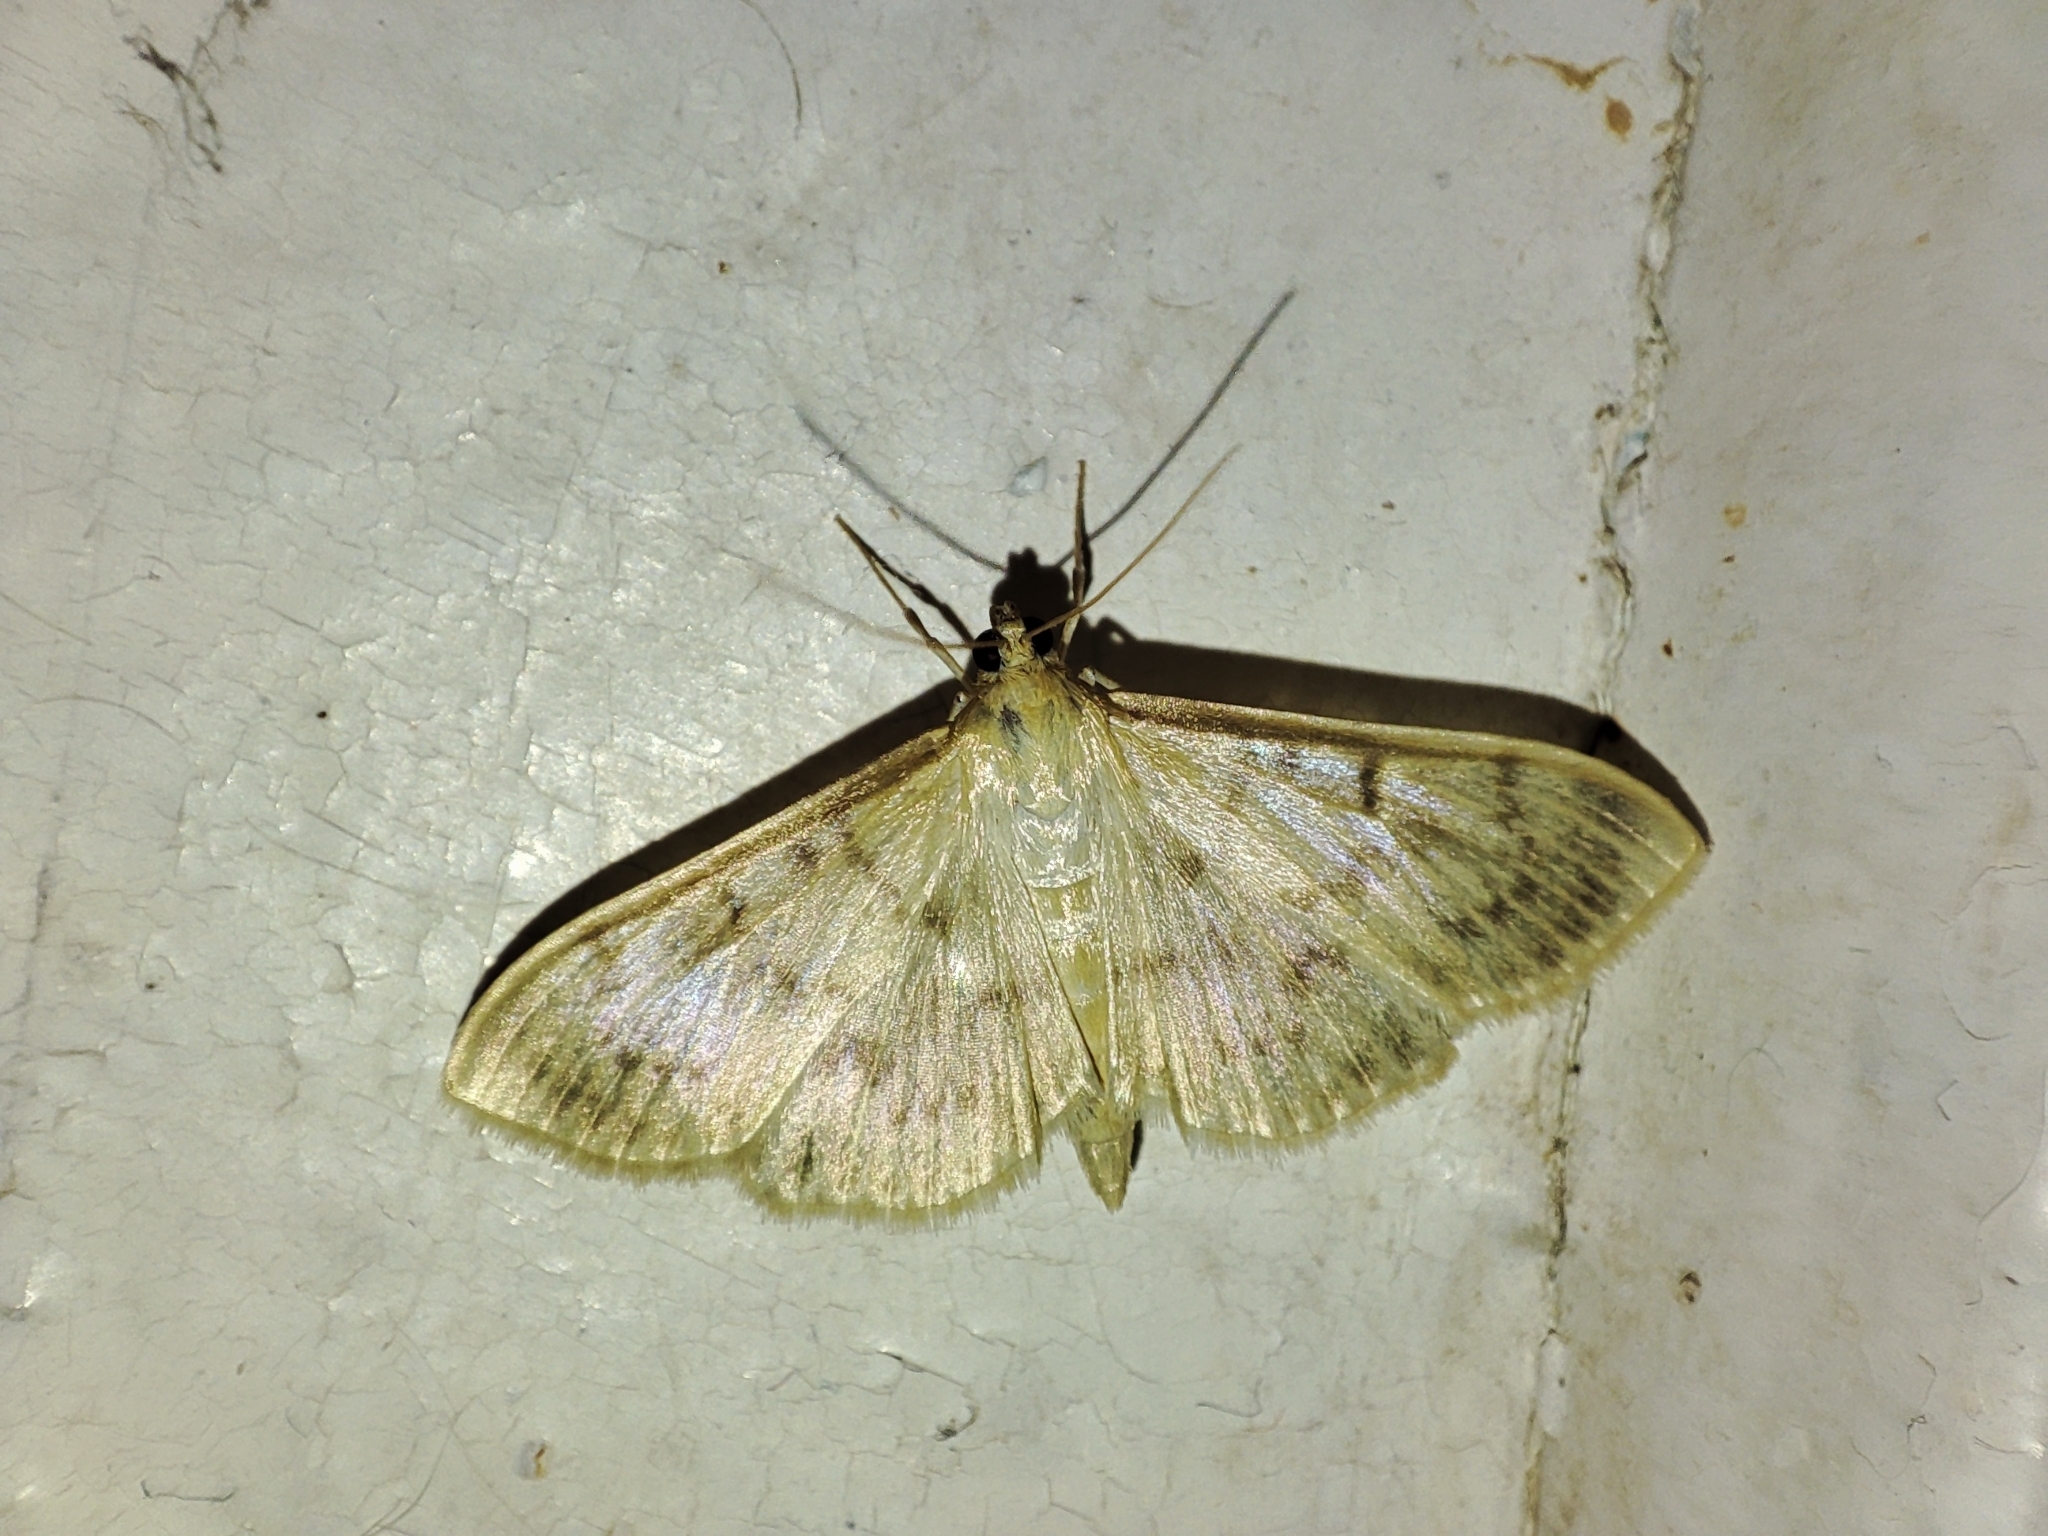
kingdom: Animalia
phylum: Arthropoda
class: Insecta
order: Lepidoptera
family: Crambidae
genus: Patania
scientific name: Patania ruralis
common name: Mother of pearl
